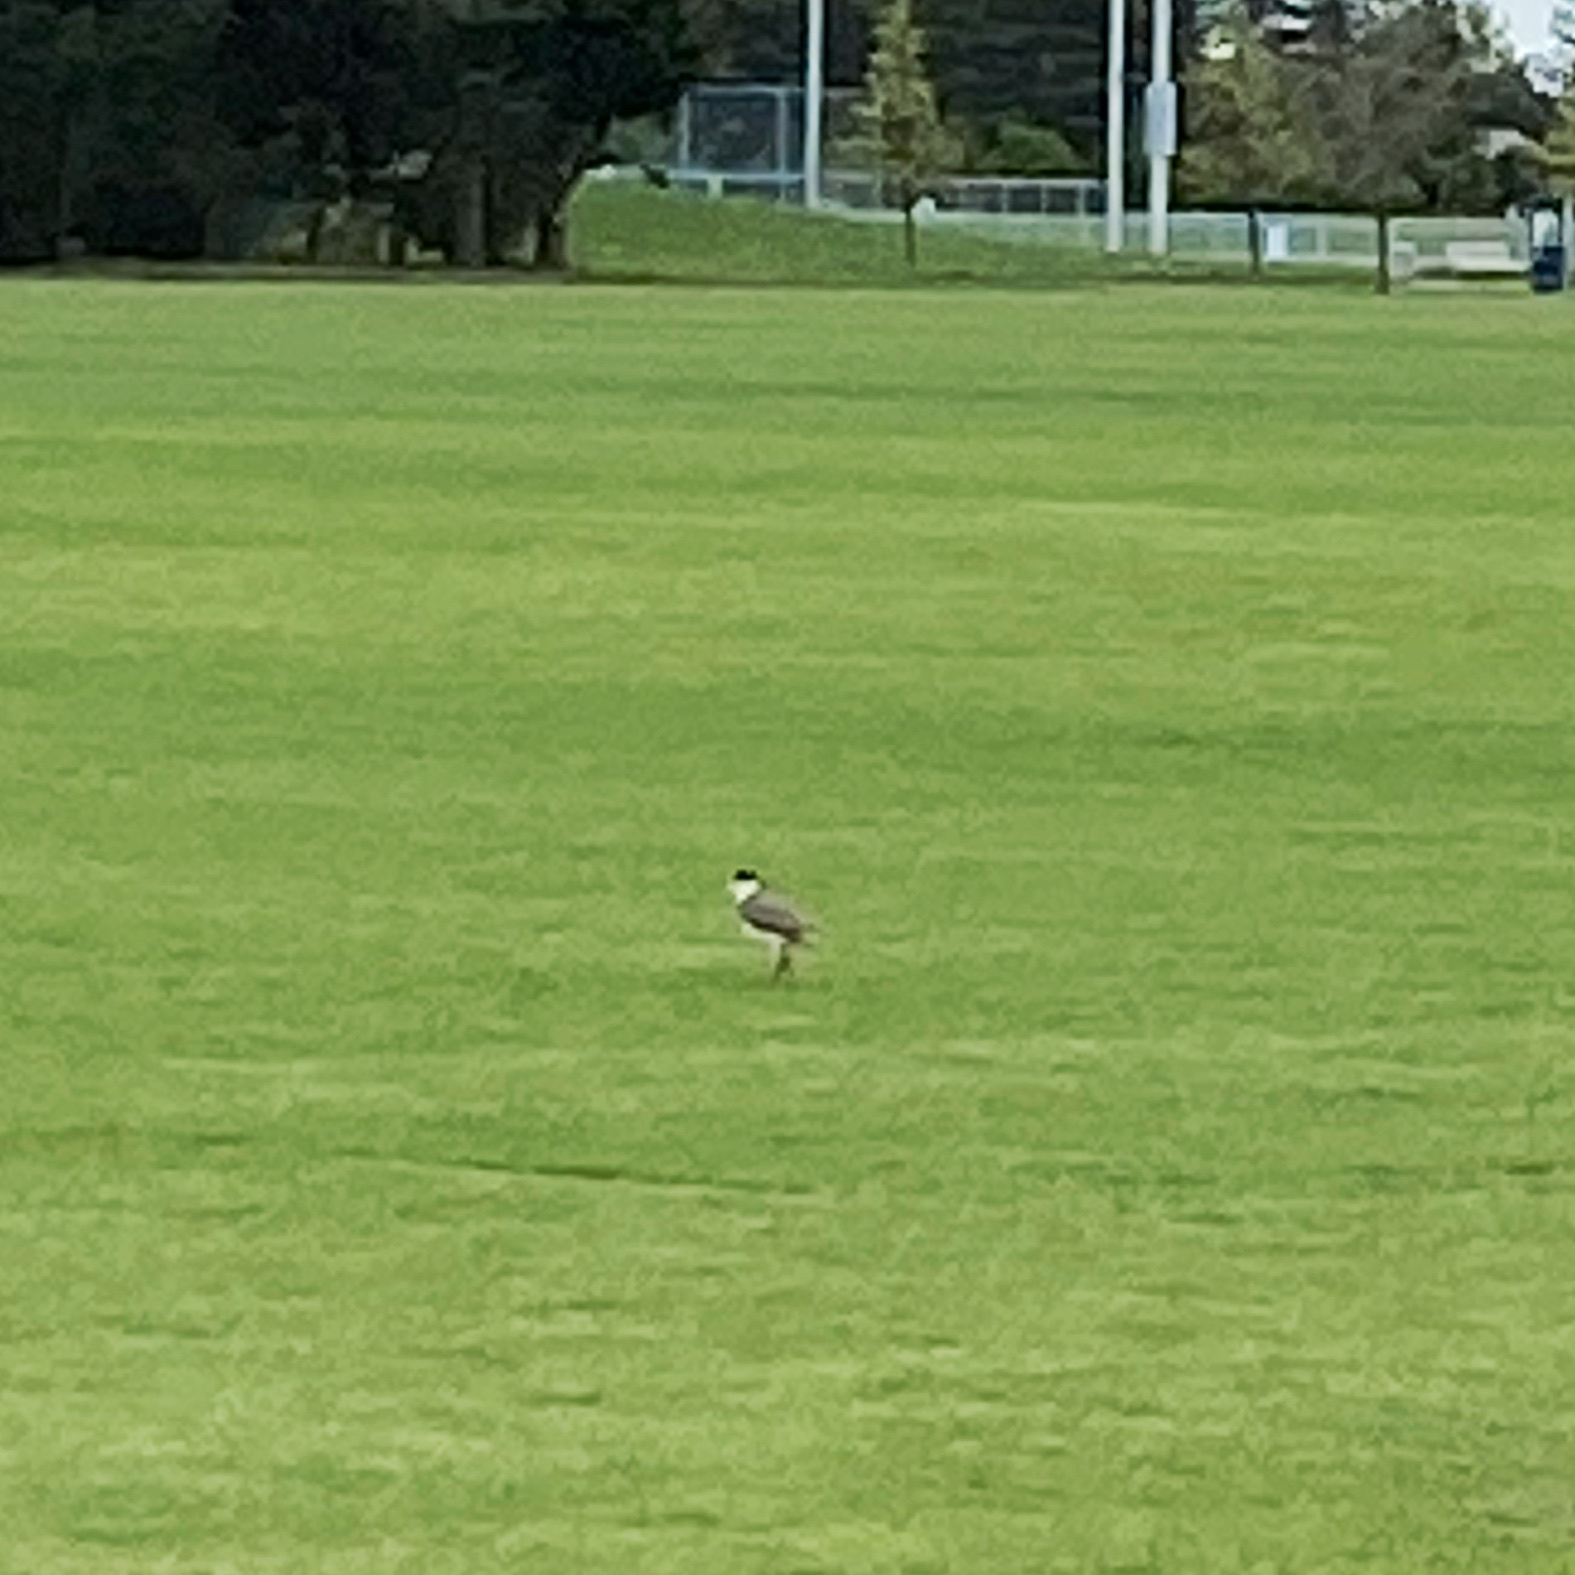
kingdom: Animalia
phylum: Chordata
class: Aves
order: Charadriiformes
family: Charadriidae
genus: Vanellus
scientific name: Vanellus miles
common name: Masked lapwing
